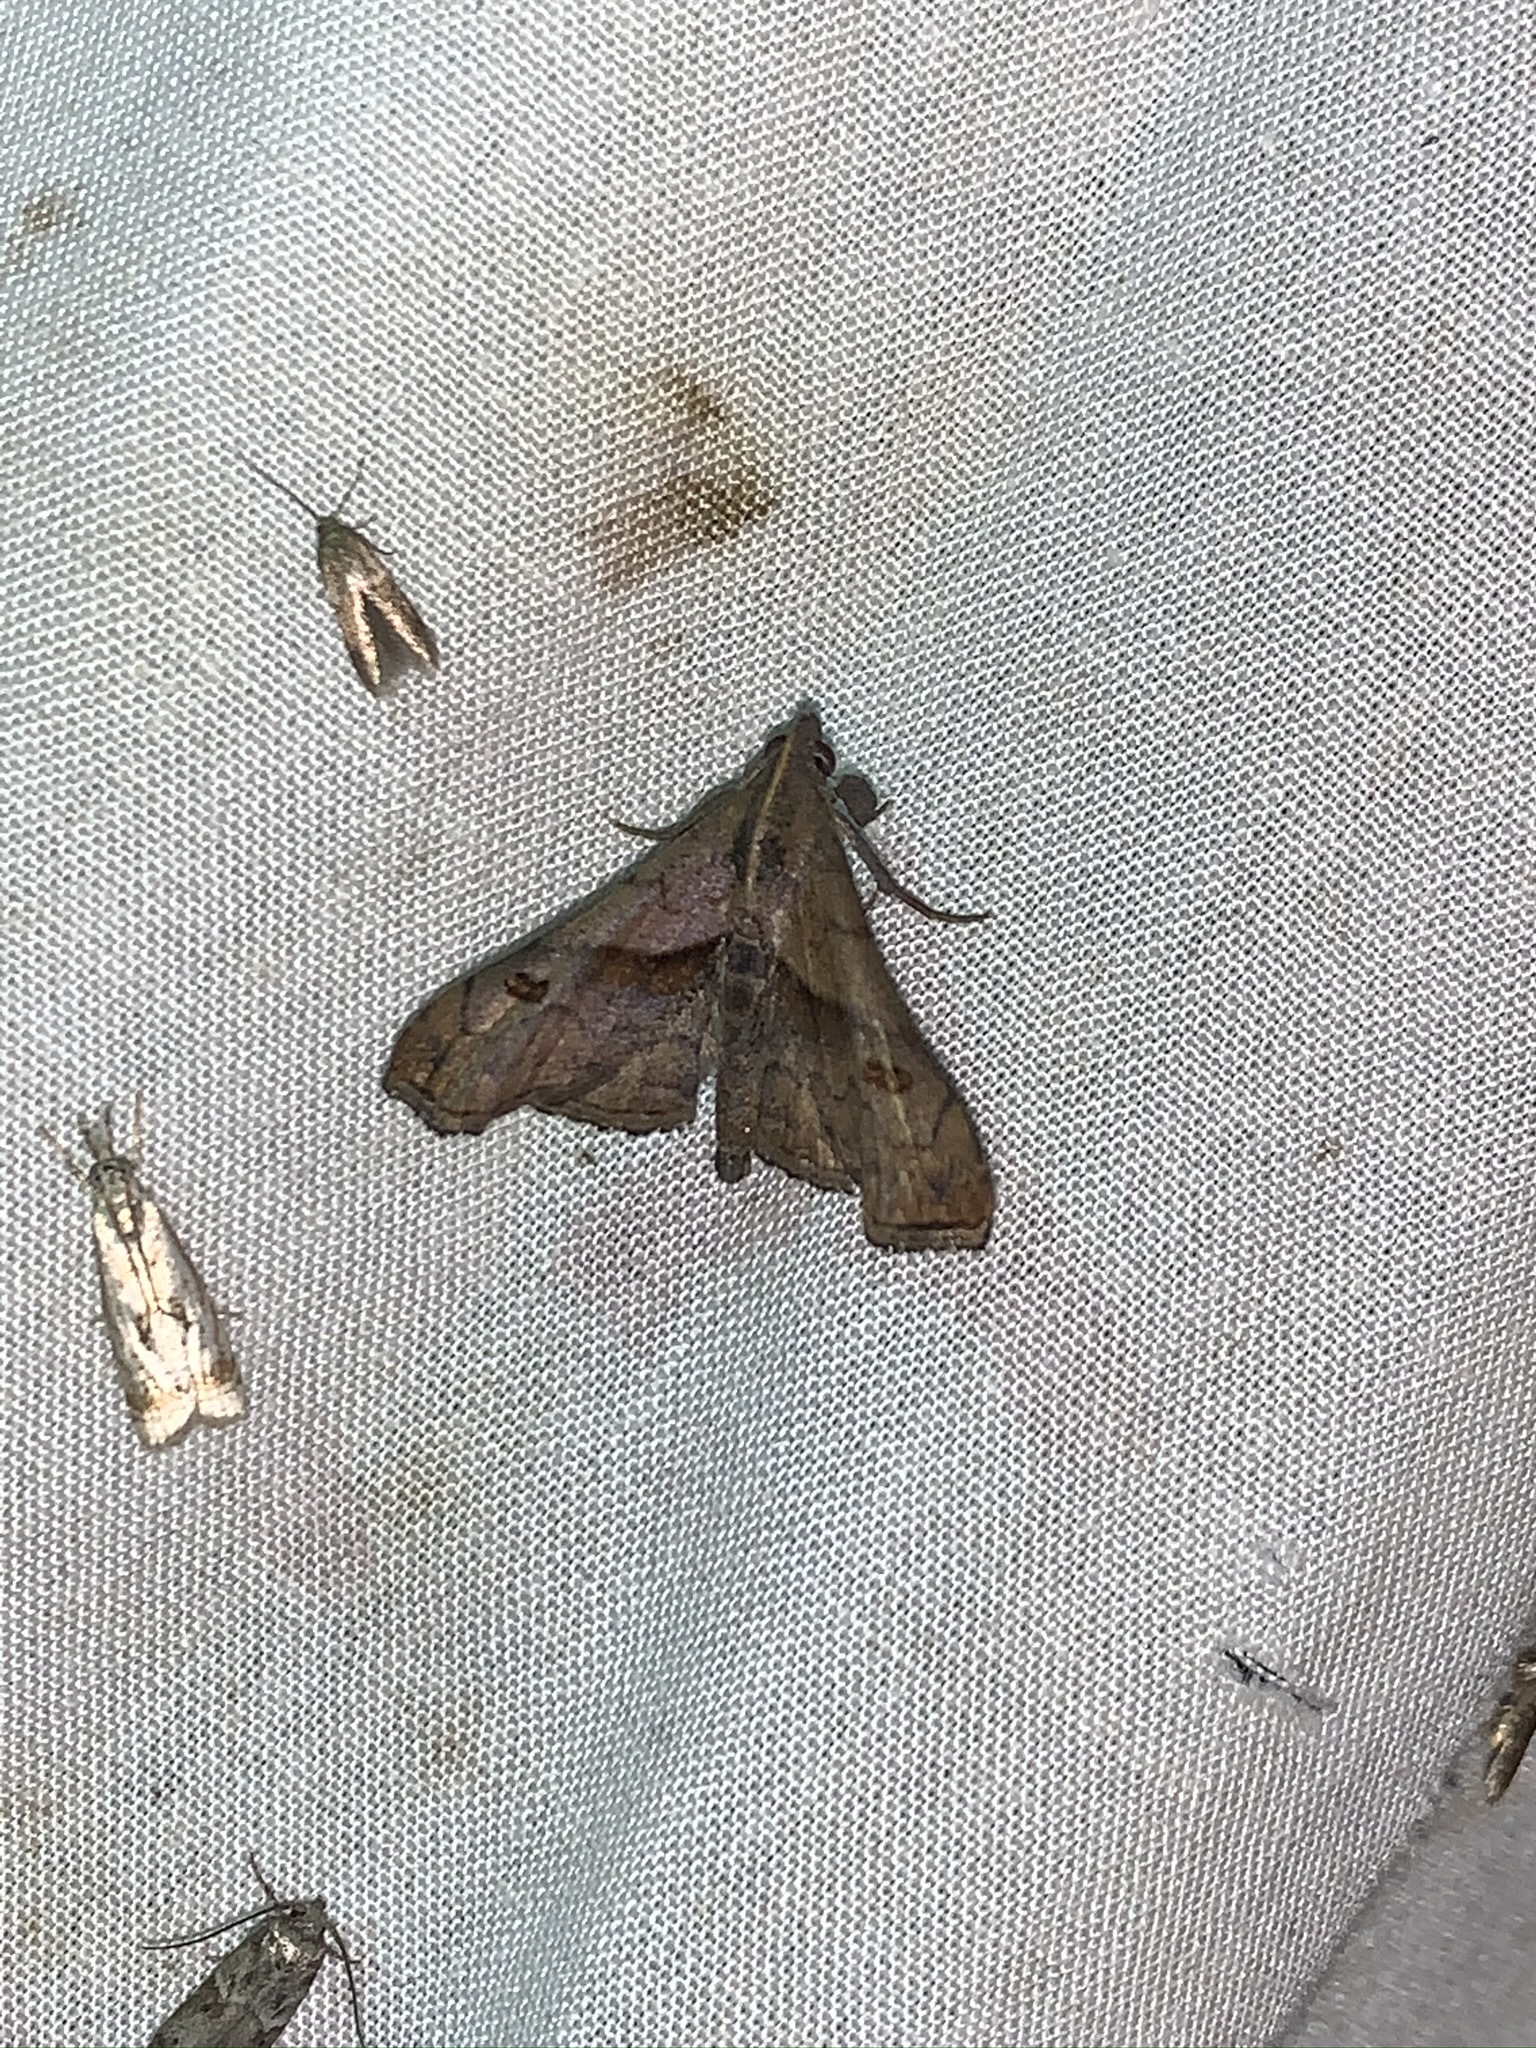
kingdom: Animalia
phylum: Arthropoda
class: Insecta
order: Lepidoptera
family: Erebidae
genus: Palthis
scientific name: Palthis angulalis
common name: Dark-spotted palthis moth
